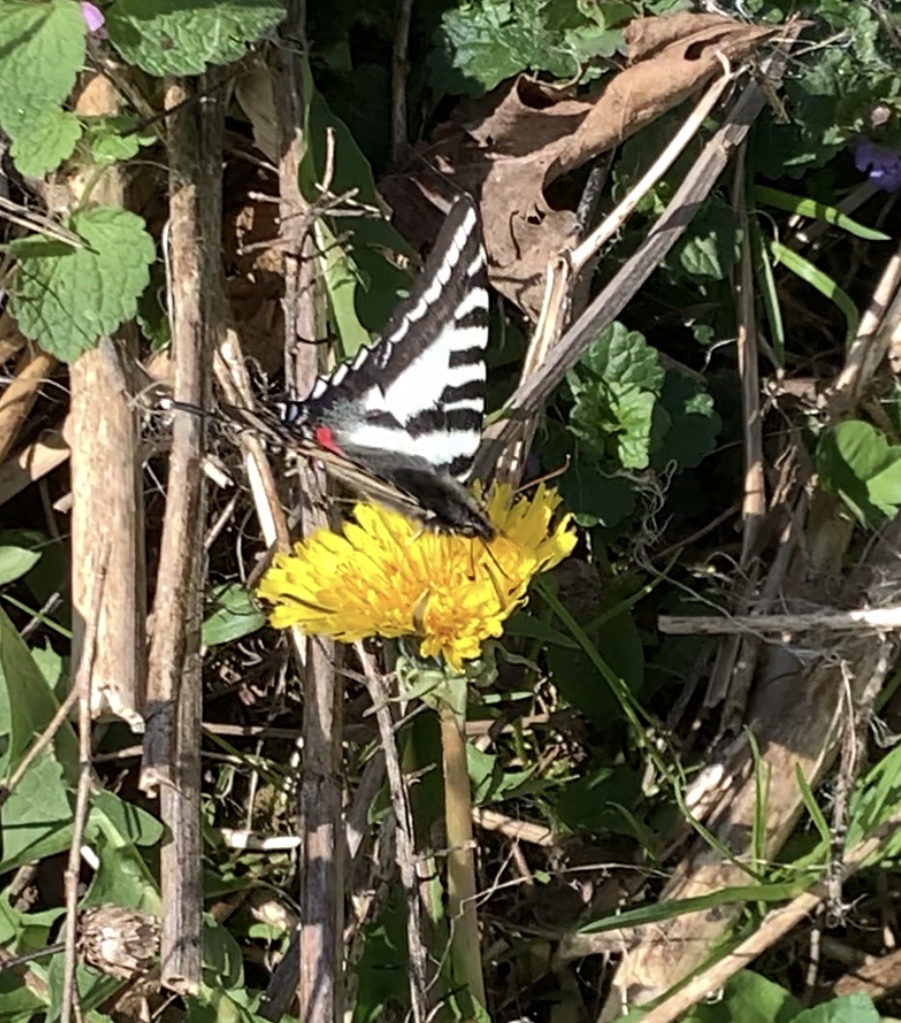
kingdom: Animalia
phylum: Arthropoda
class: Insecta
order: Lepidoptera
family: Papilionidae
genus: Protographium
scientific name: Protographium marcellus
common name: Zebra swallowtail
